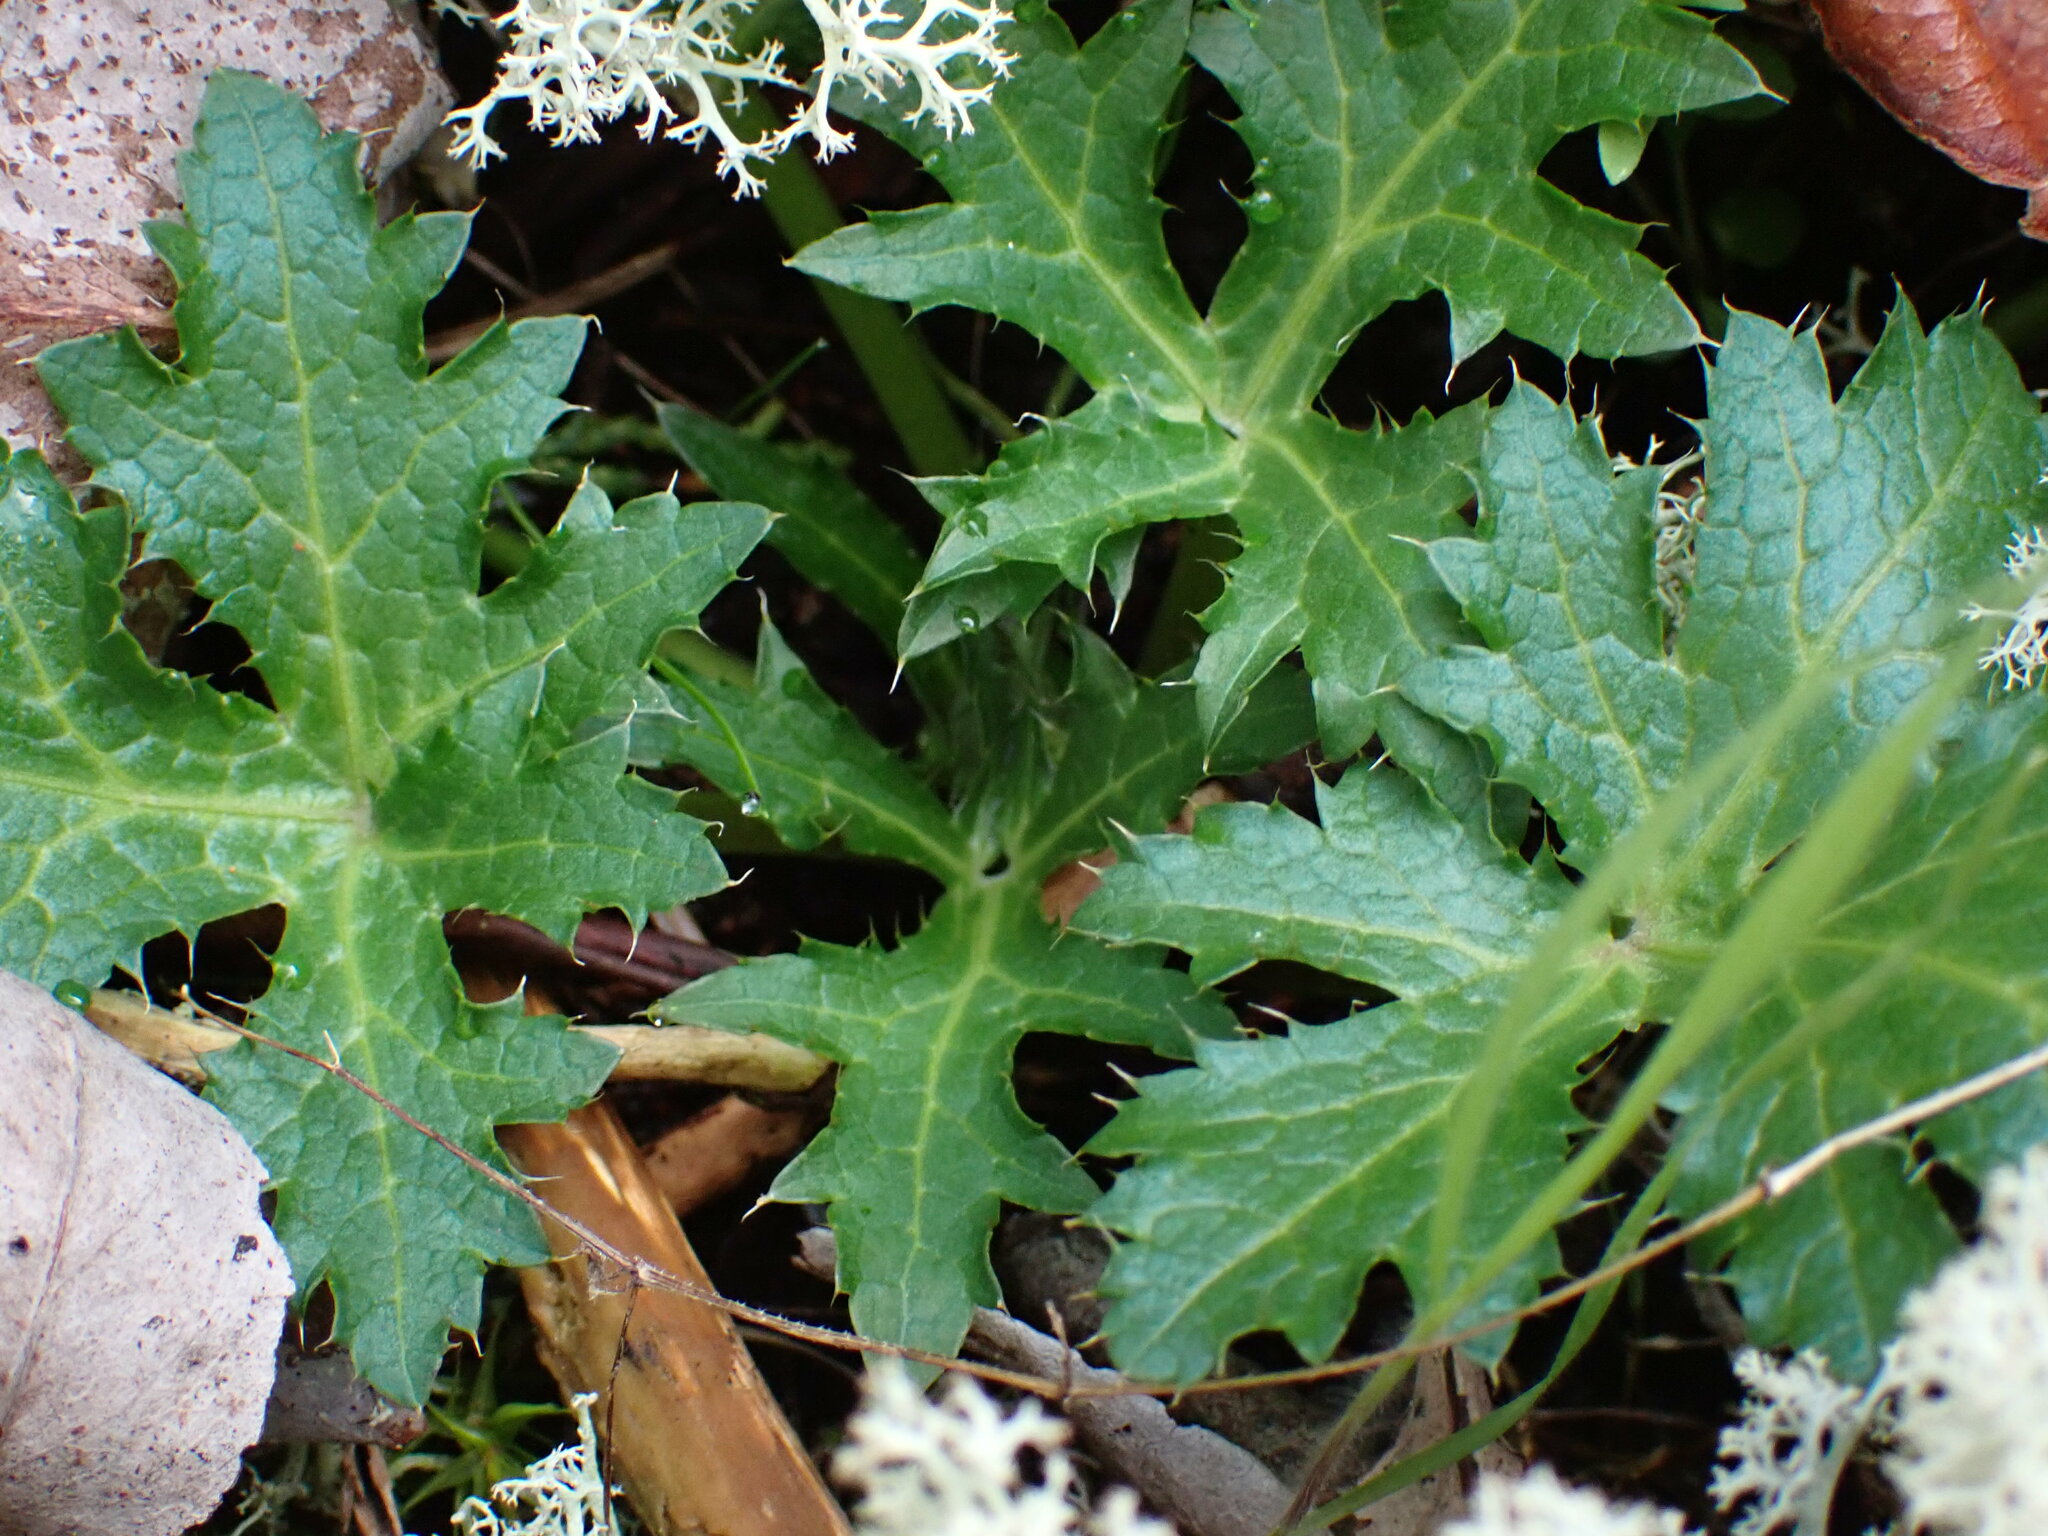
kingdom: Plantae
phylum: Tracheophyta
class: Magnoliopsida
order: Apiales
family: Apiaceae
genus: Sanicula
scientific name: Sanicula crassicaulis
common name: Western snakeroot
